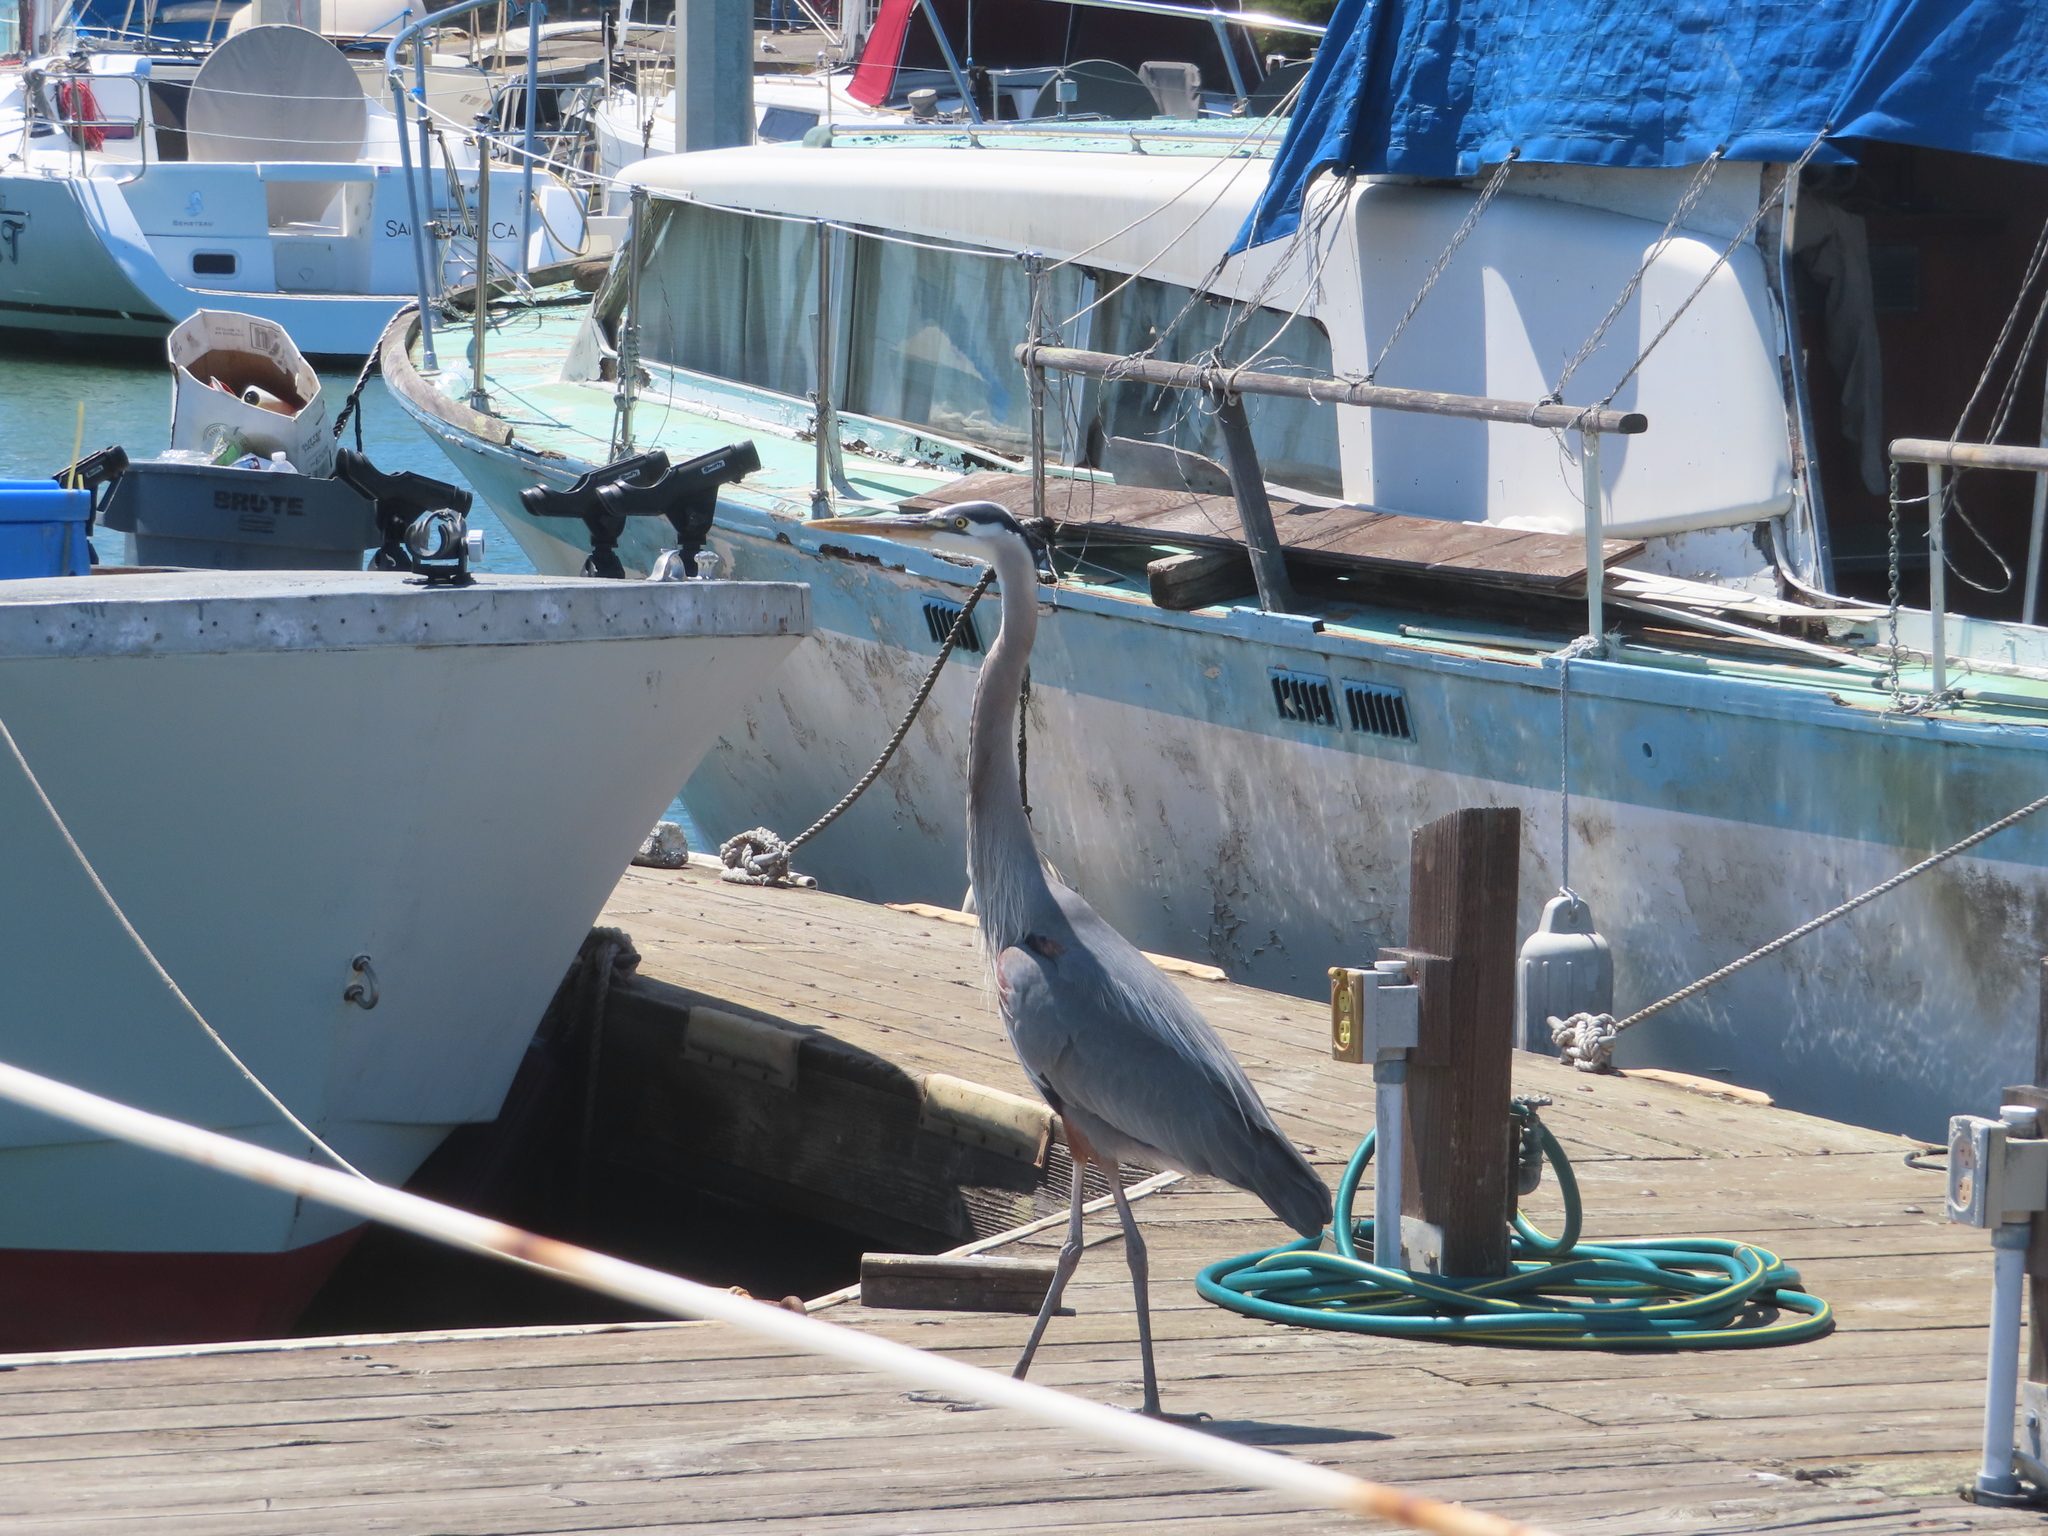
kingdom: Animalia
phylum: Chordata
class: Aves
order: Pelecaniformes
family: Ardeidae
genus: Ardea
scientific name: Ardea herodias
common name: Great blue heron
